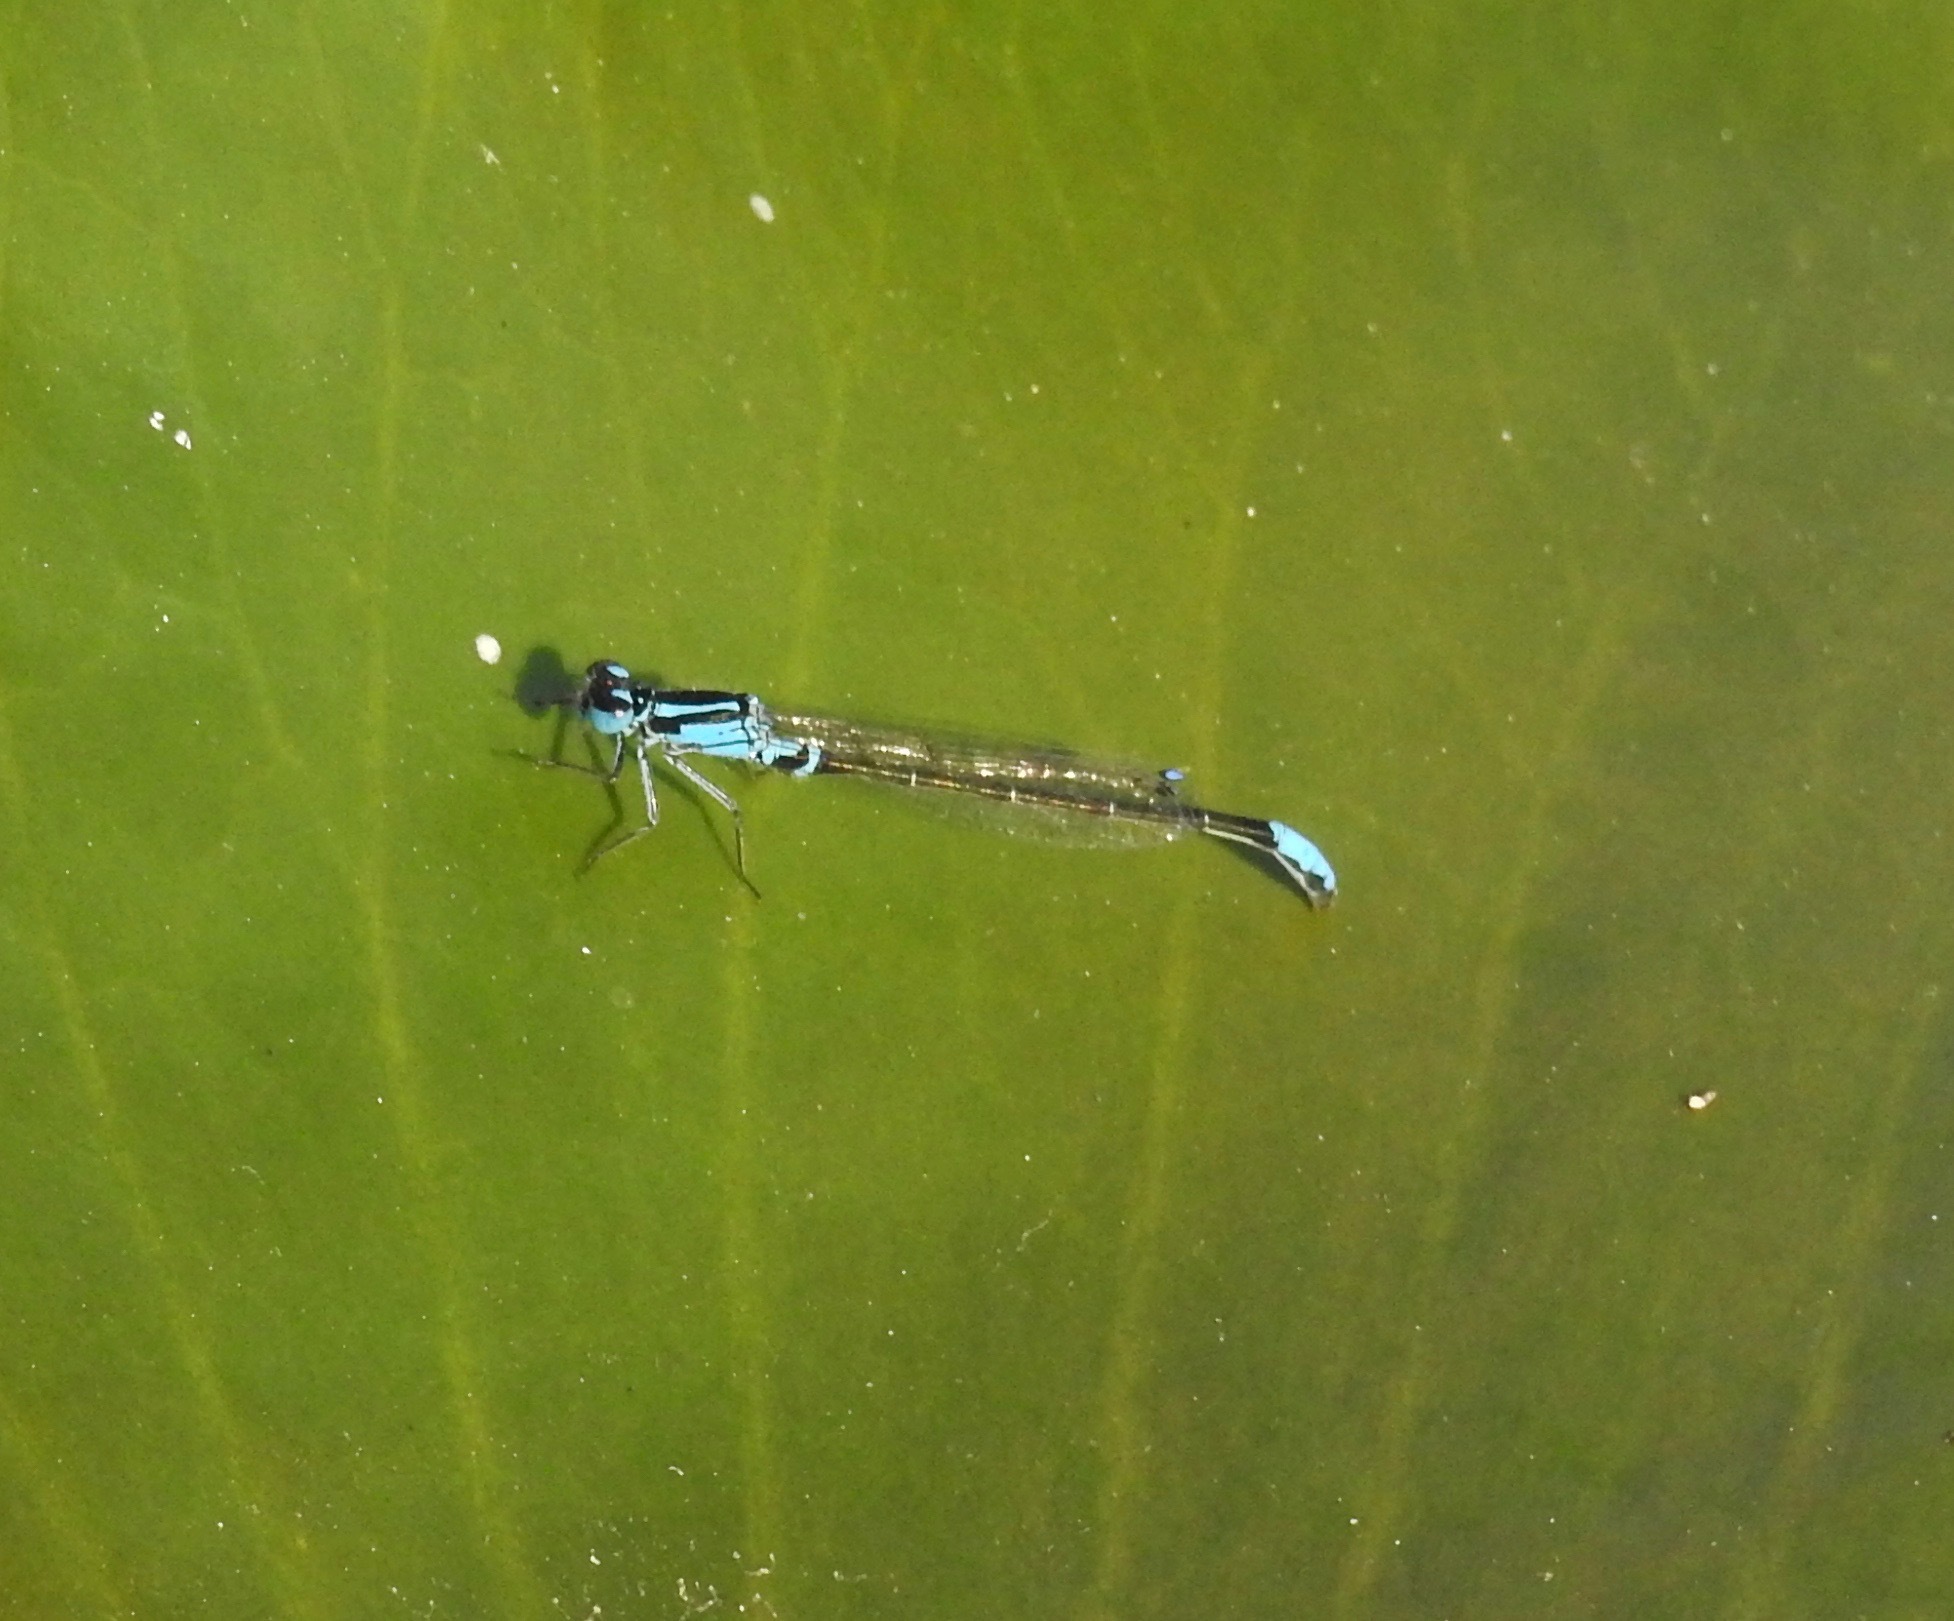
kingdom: Animalia
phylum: Arthropoda
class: Insecta
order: Odonata
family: Coenagrionidae
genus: Ischnura
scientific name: Ischnura kellicotti
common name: Lilypad forktail
